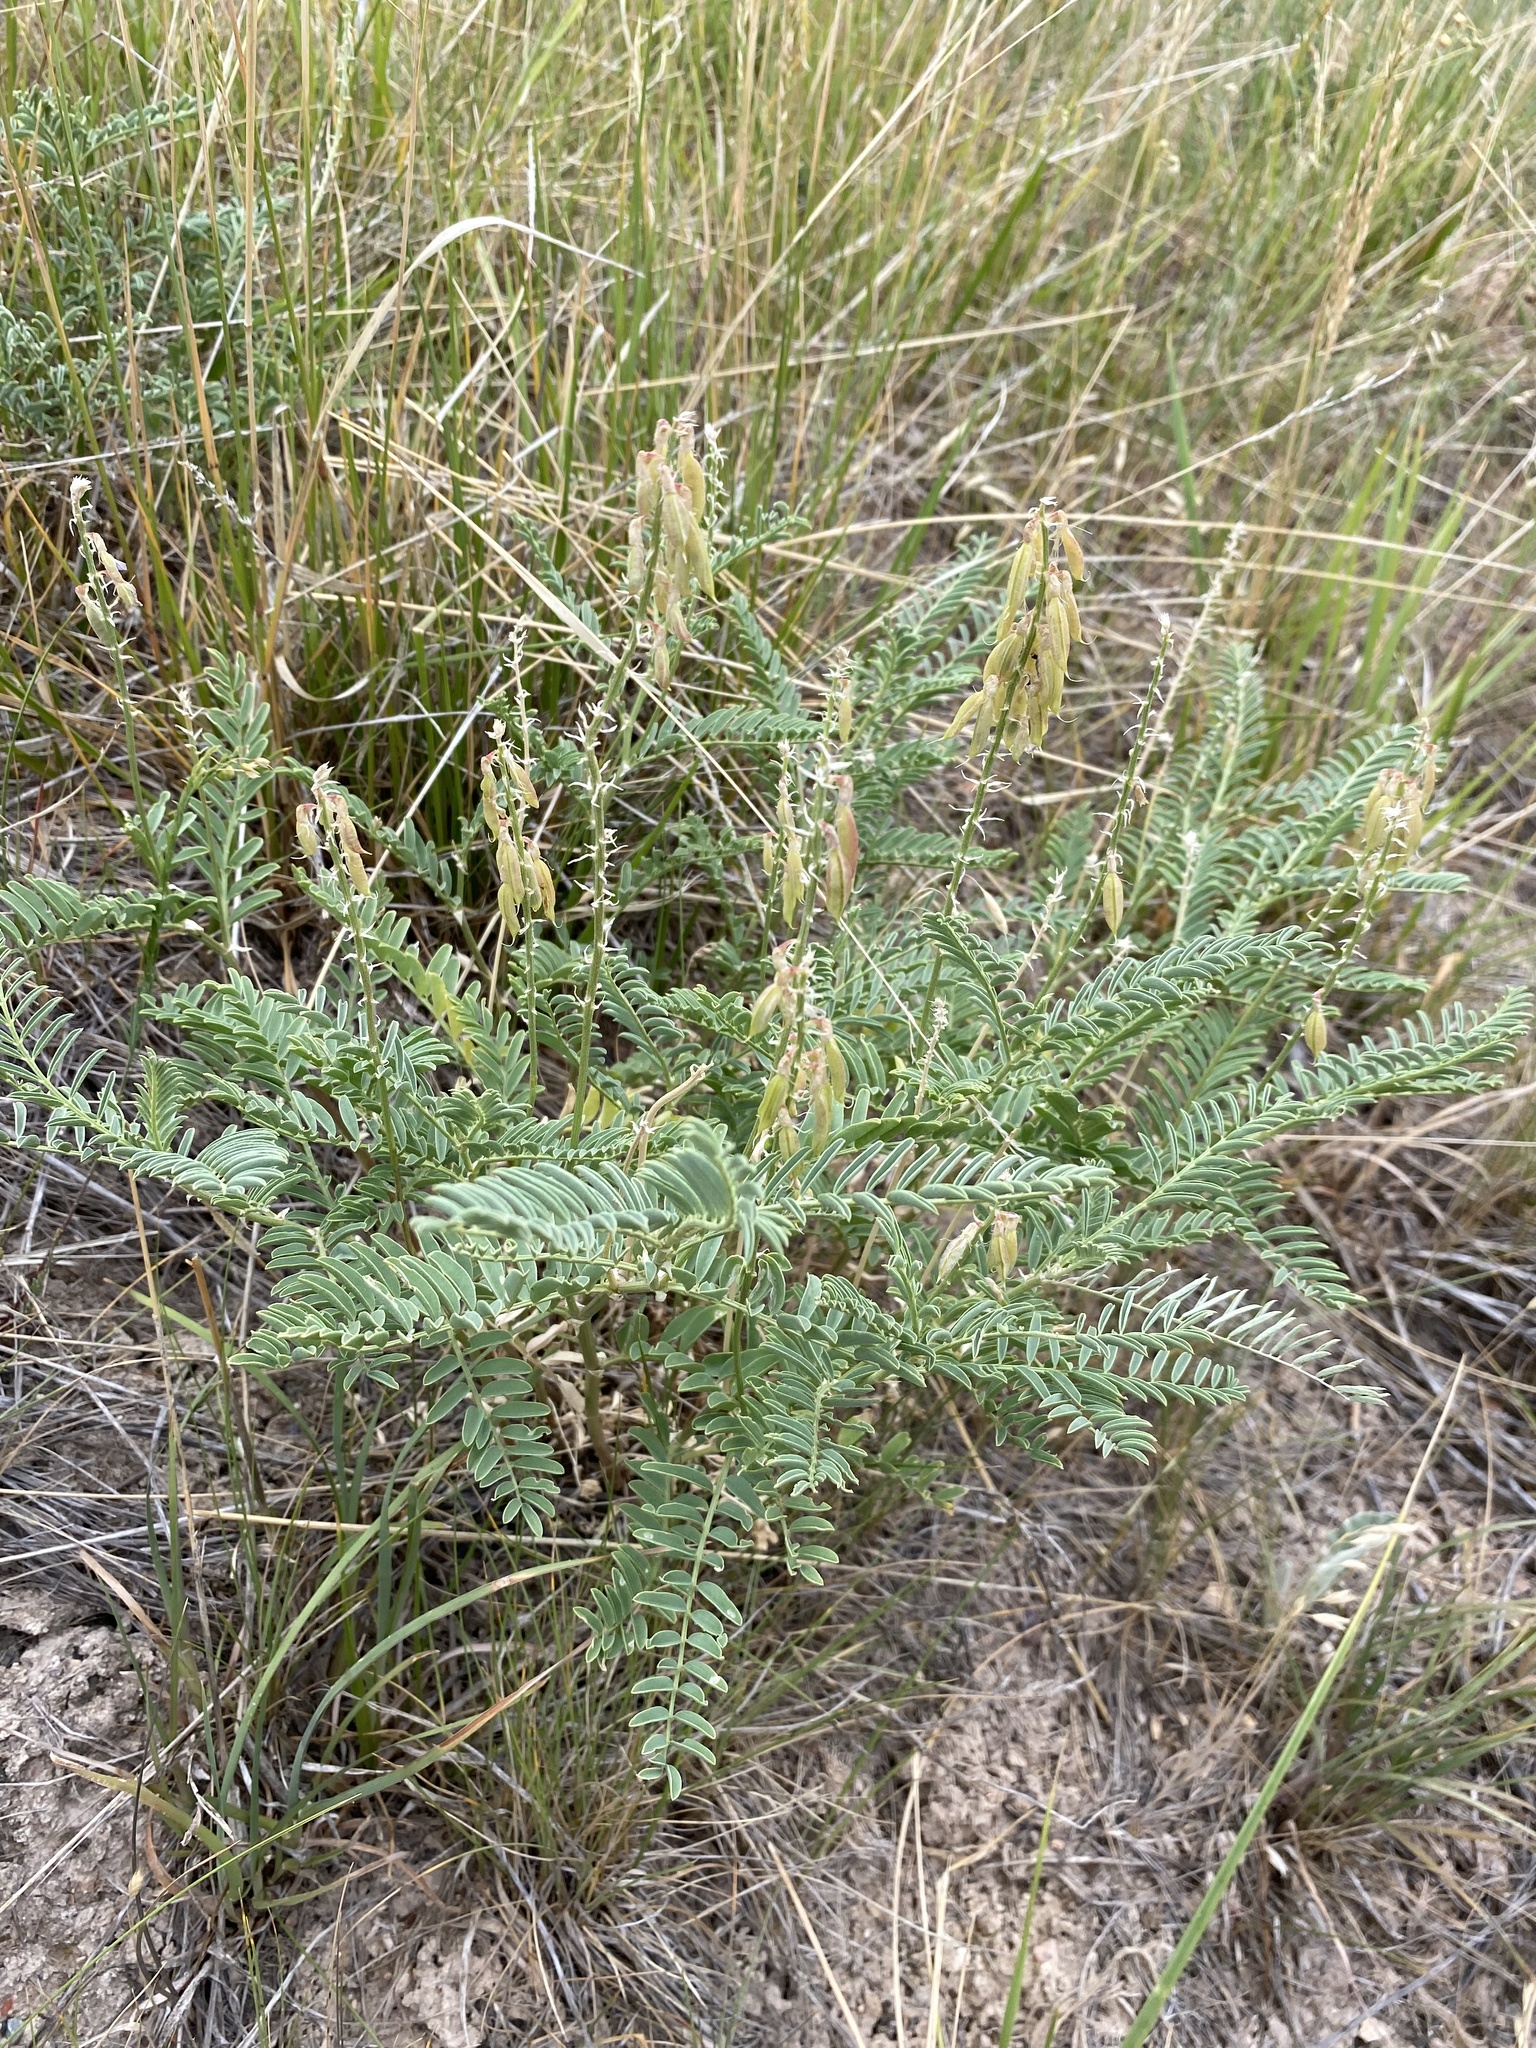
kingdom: Plantae
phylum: Tracheophyta
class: Magnoliopsida
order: Fabales
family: Fabaceae
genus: Astragalus
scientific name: Astragalus bisulcatus
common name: Two-groove milk-vetch
